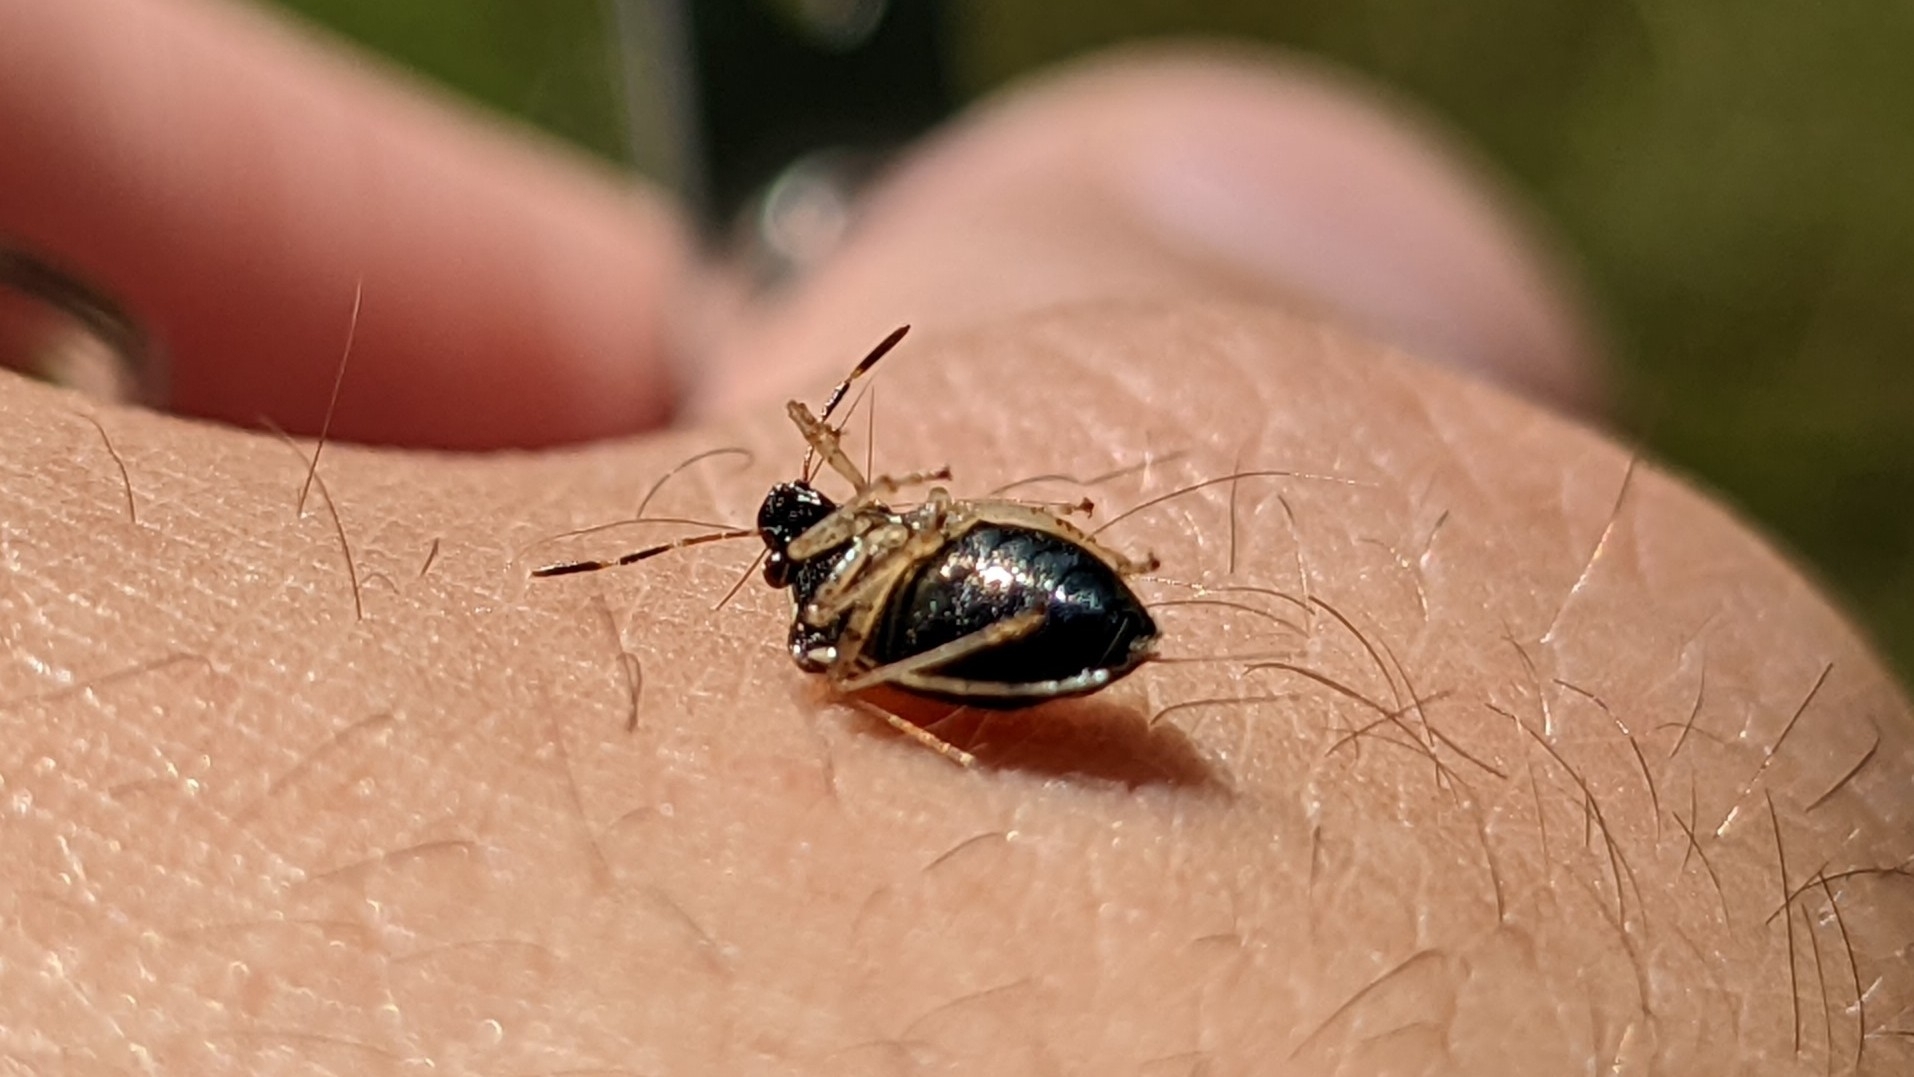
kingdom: Animalia
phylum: Arthropoda
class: Insecta
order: Hemiptera
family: Pentatomidae
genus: Mormidea
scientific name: Mormidea lugens
